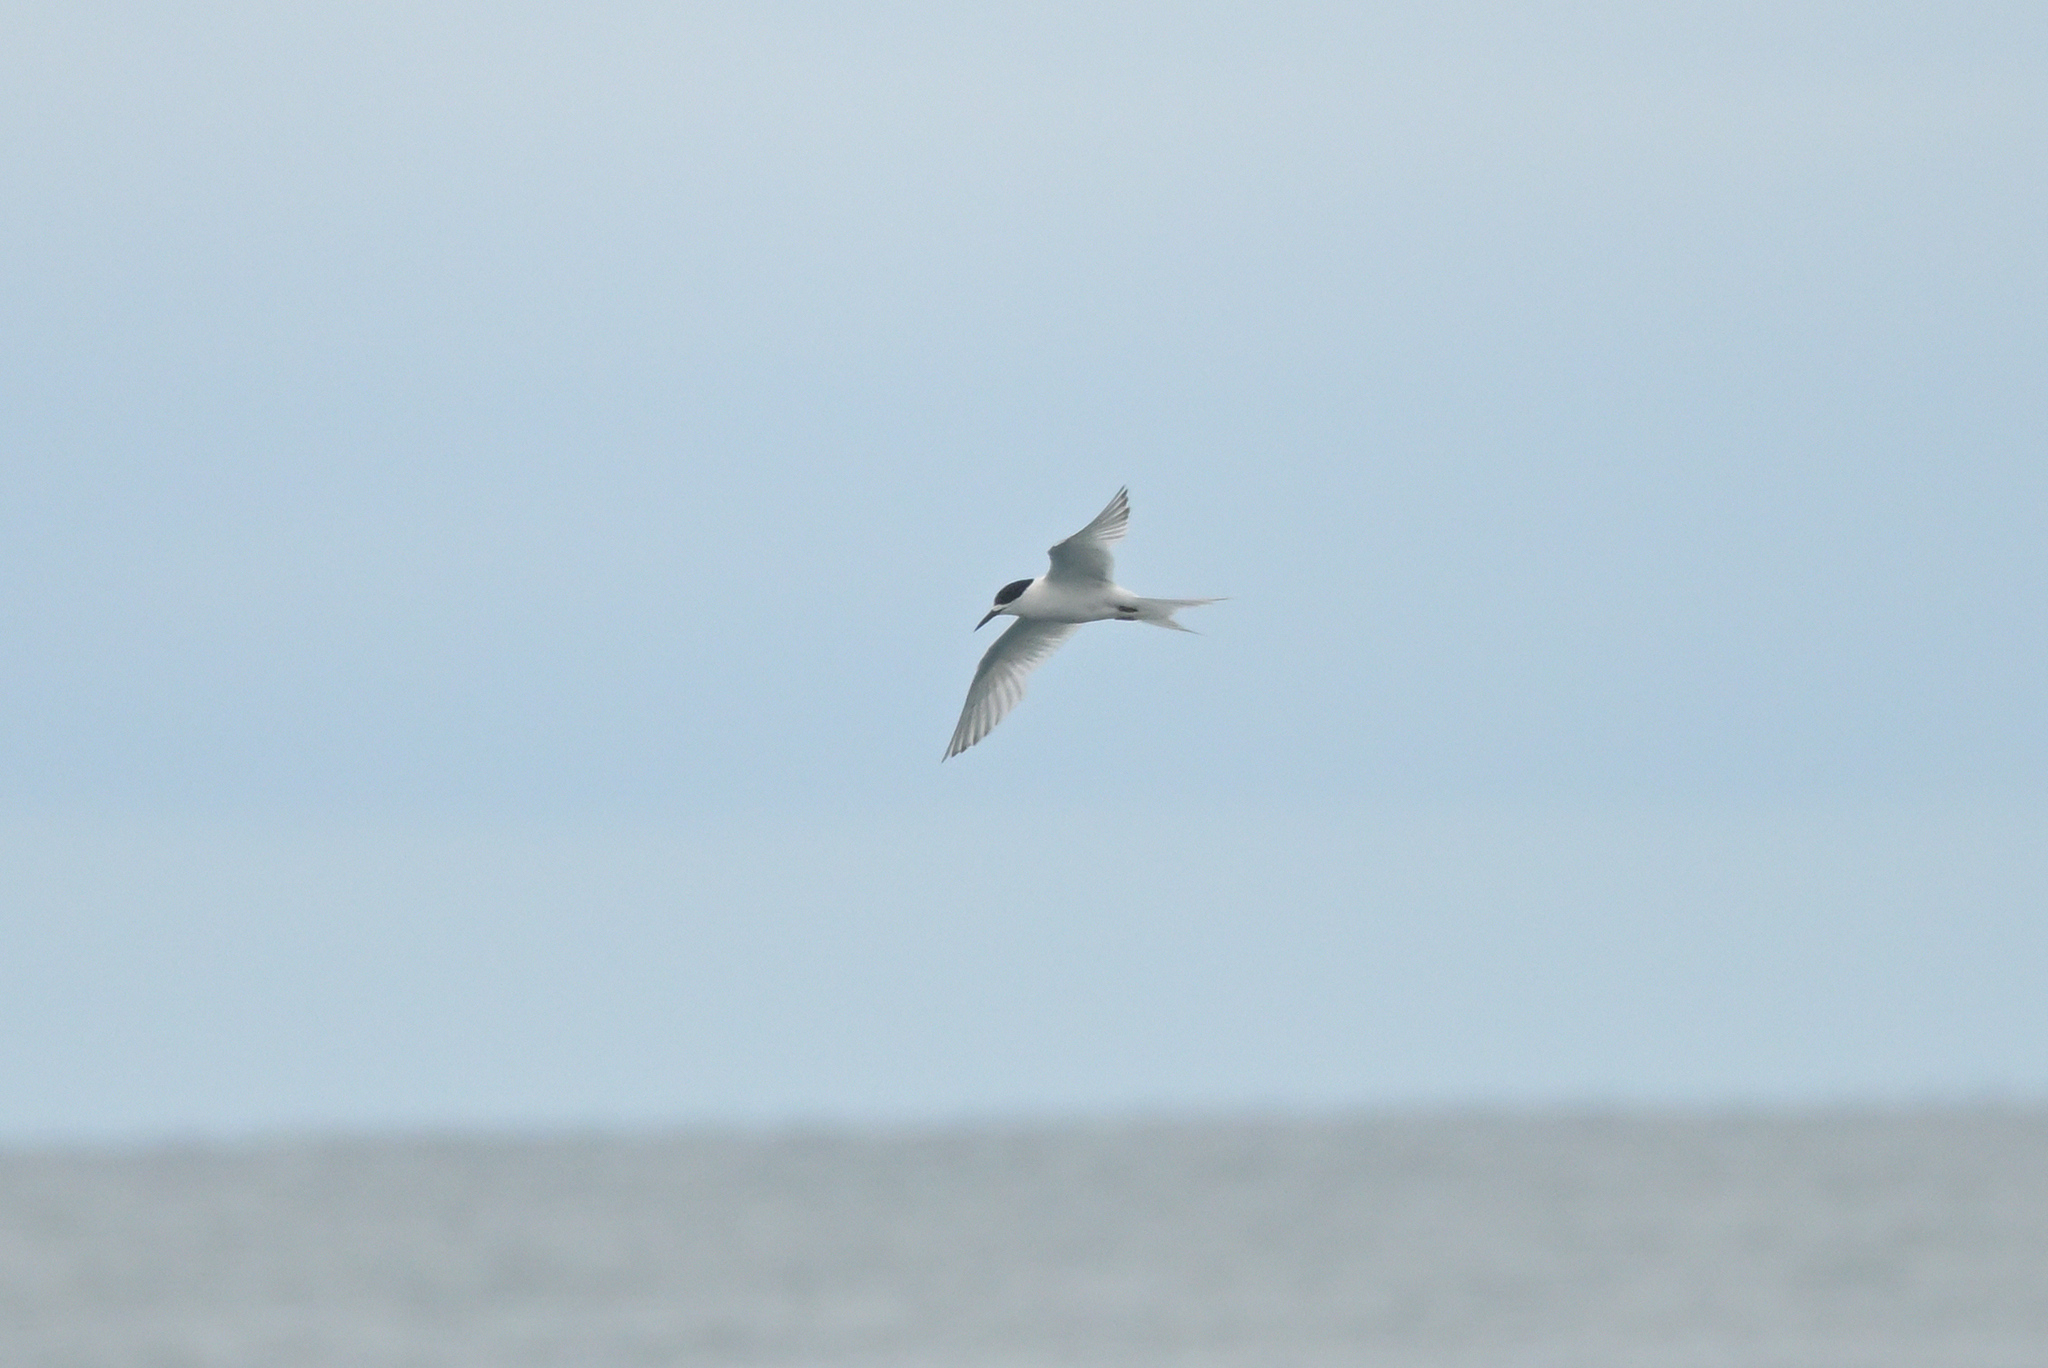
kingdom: Animalia
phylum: Chordata
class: Aves
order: Charadriiformes
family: Laridae
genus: Sterna
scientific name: Sterna striata
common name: White-fronted tern
